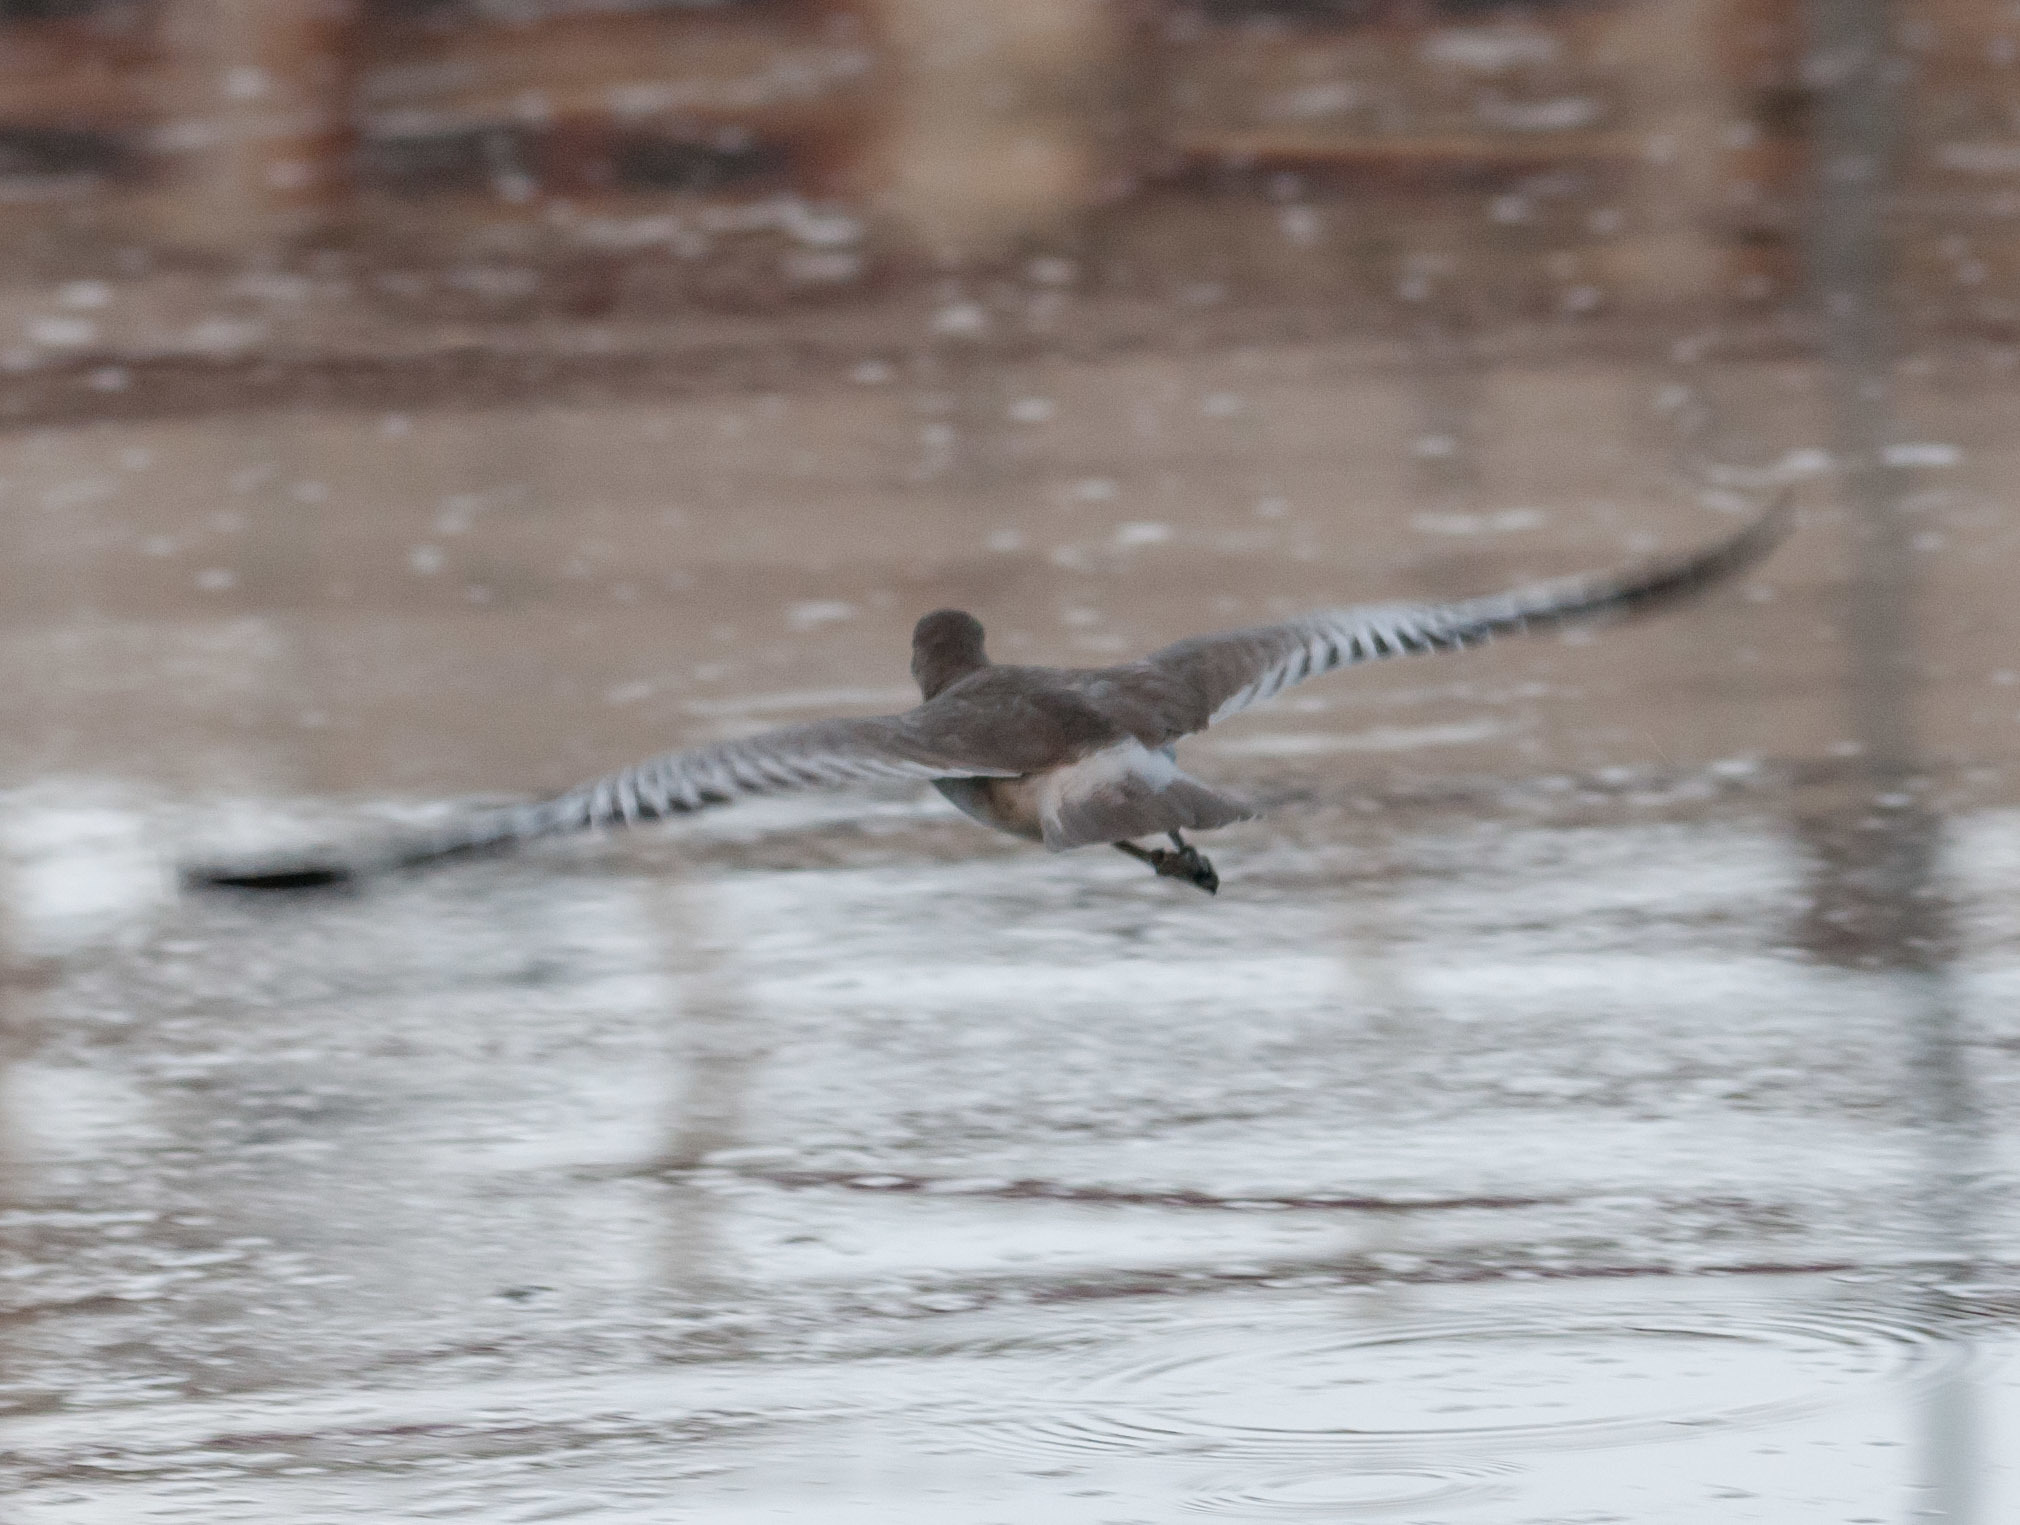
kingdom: Animalia
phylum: Chordata
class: Aves
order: Charadriiformes
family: Scolopacidae
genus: Tringa
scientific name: Tringa semipalmata
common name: Willet
